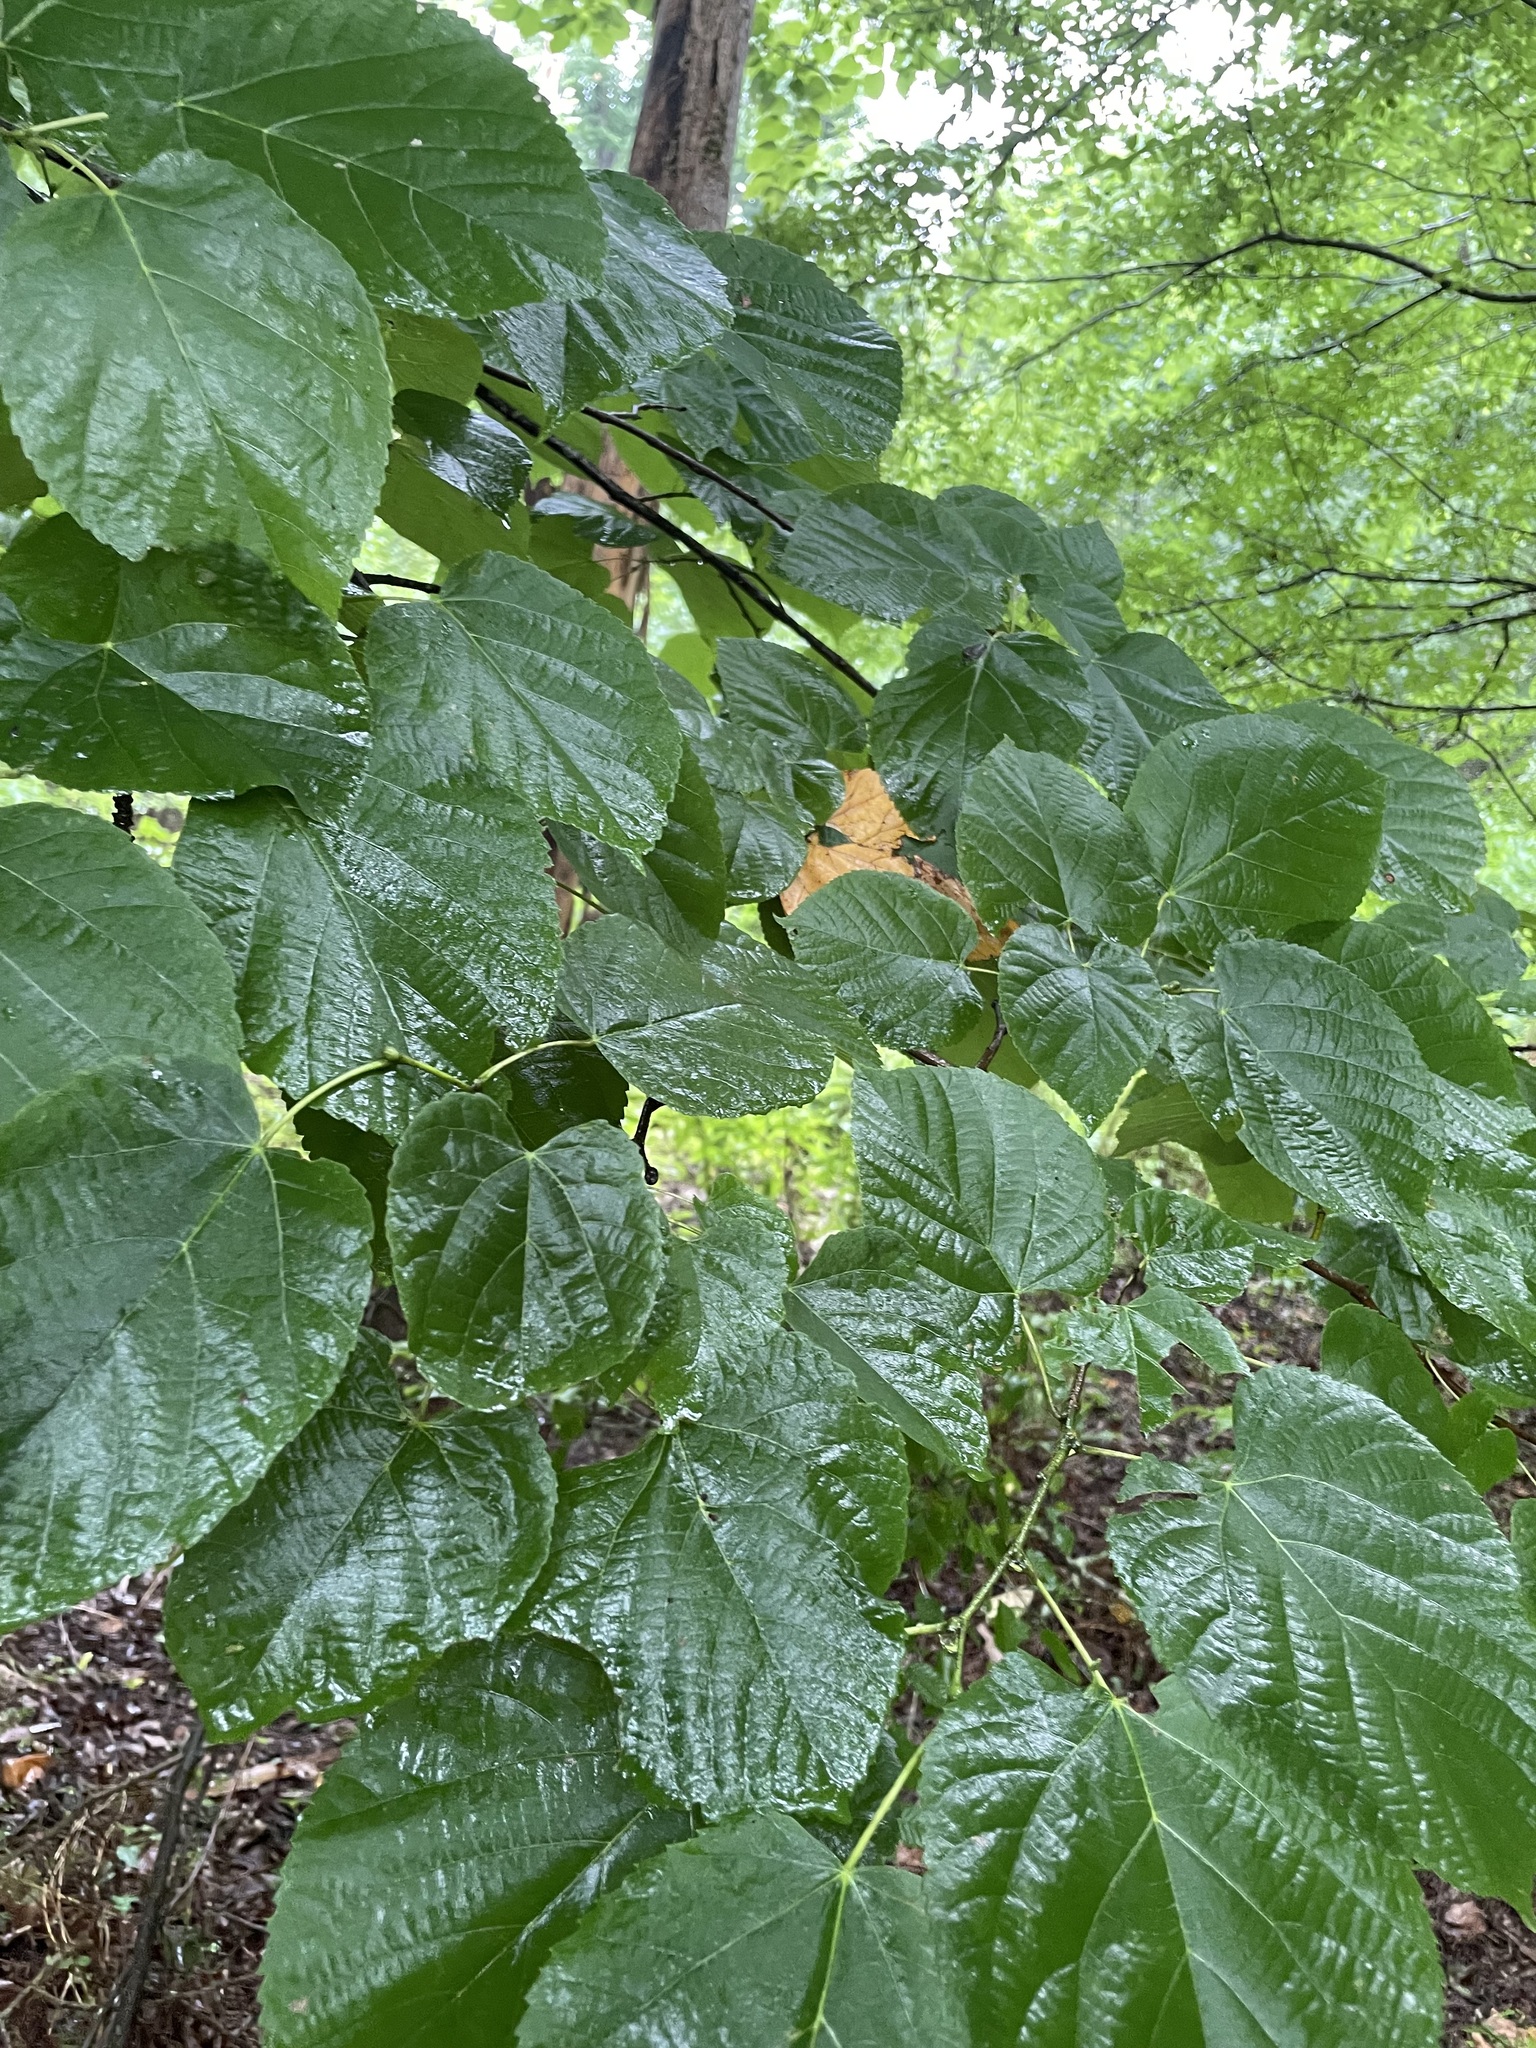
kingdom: Plantae
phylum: Tracheophyta
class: Magnoliopsida
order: Malvales
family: Malvaceae
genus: Tilia
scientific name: Tilia americana
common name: Basswood
